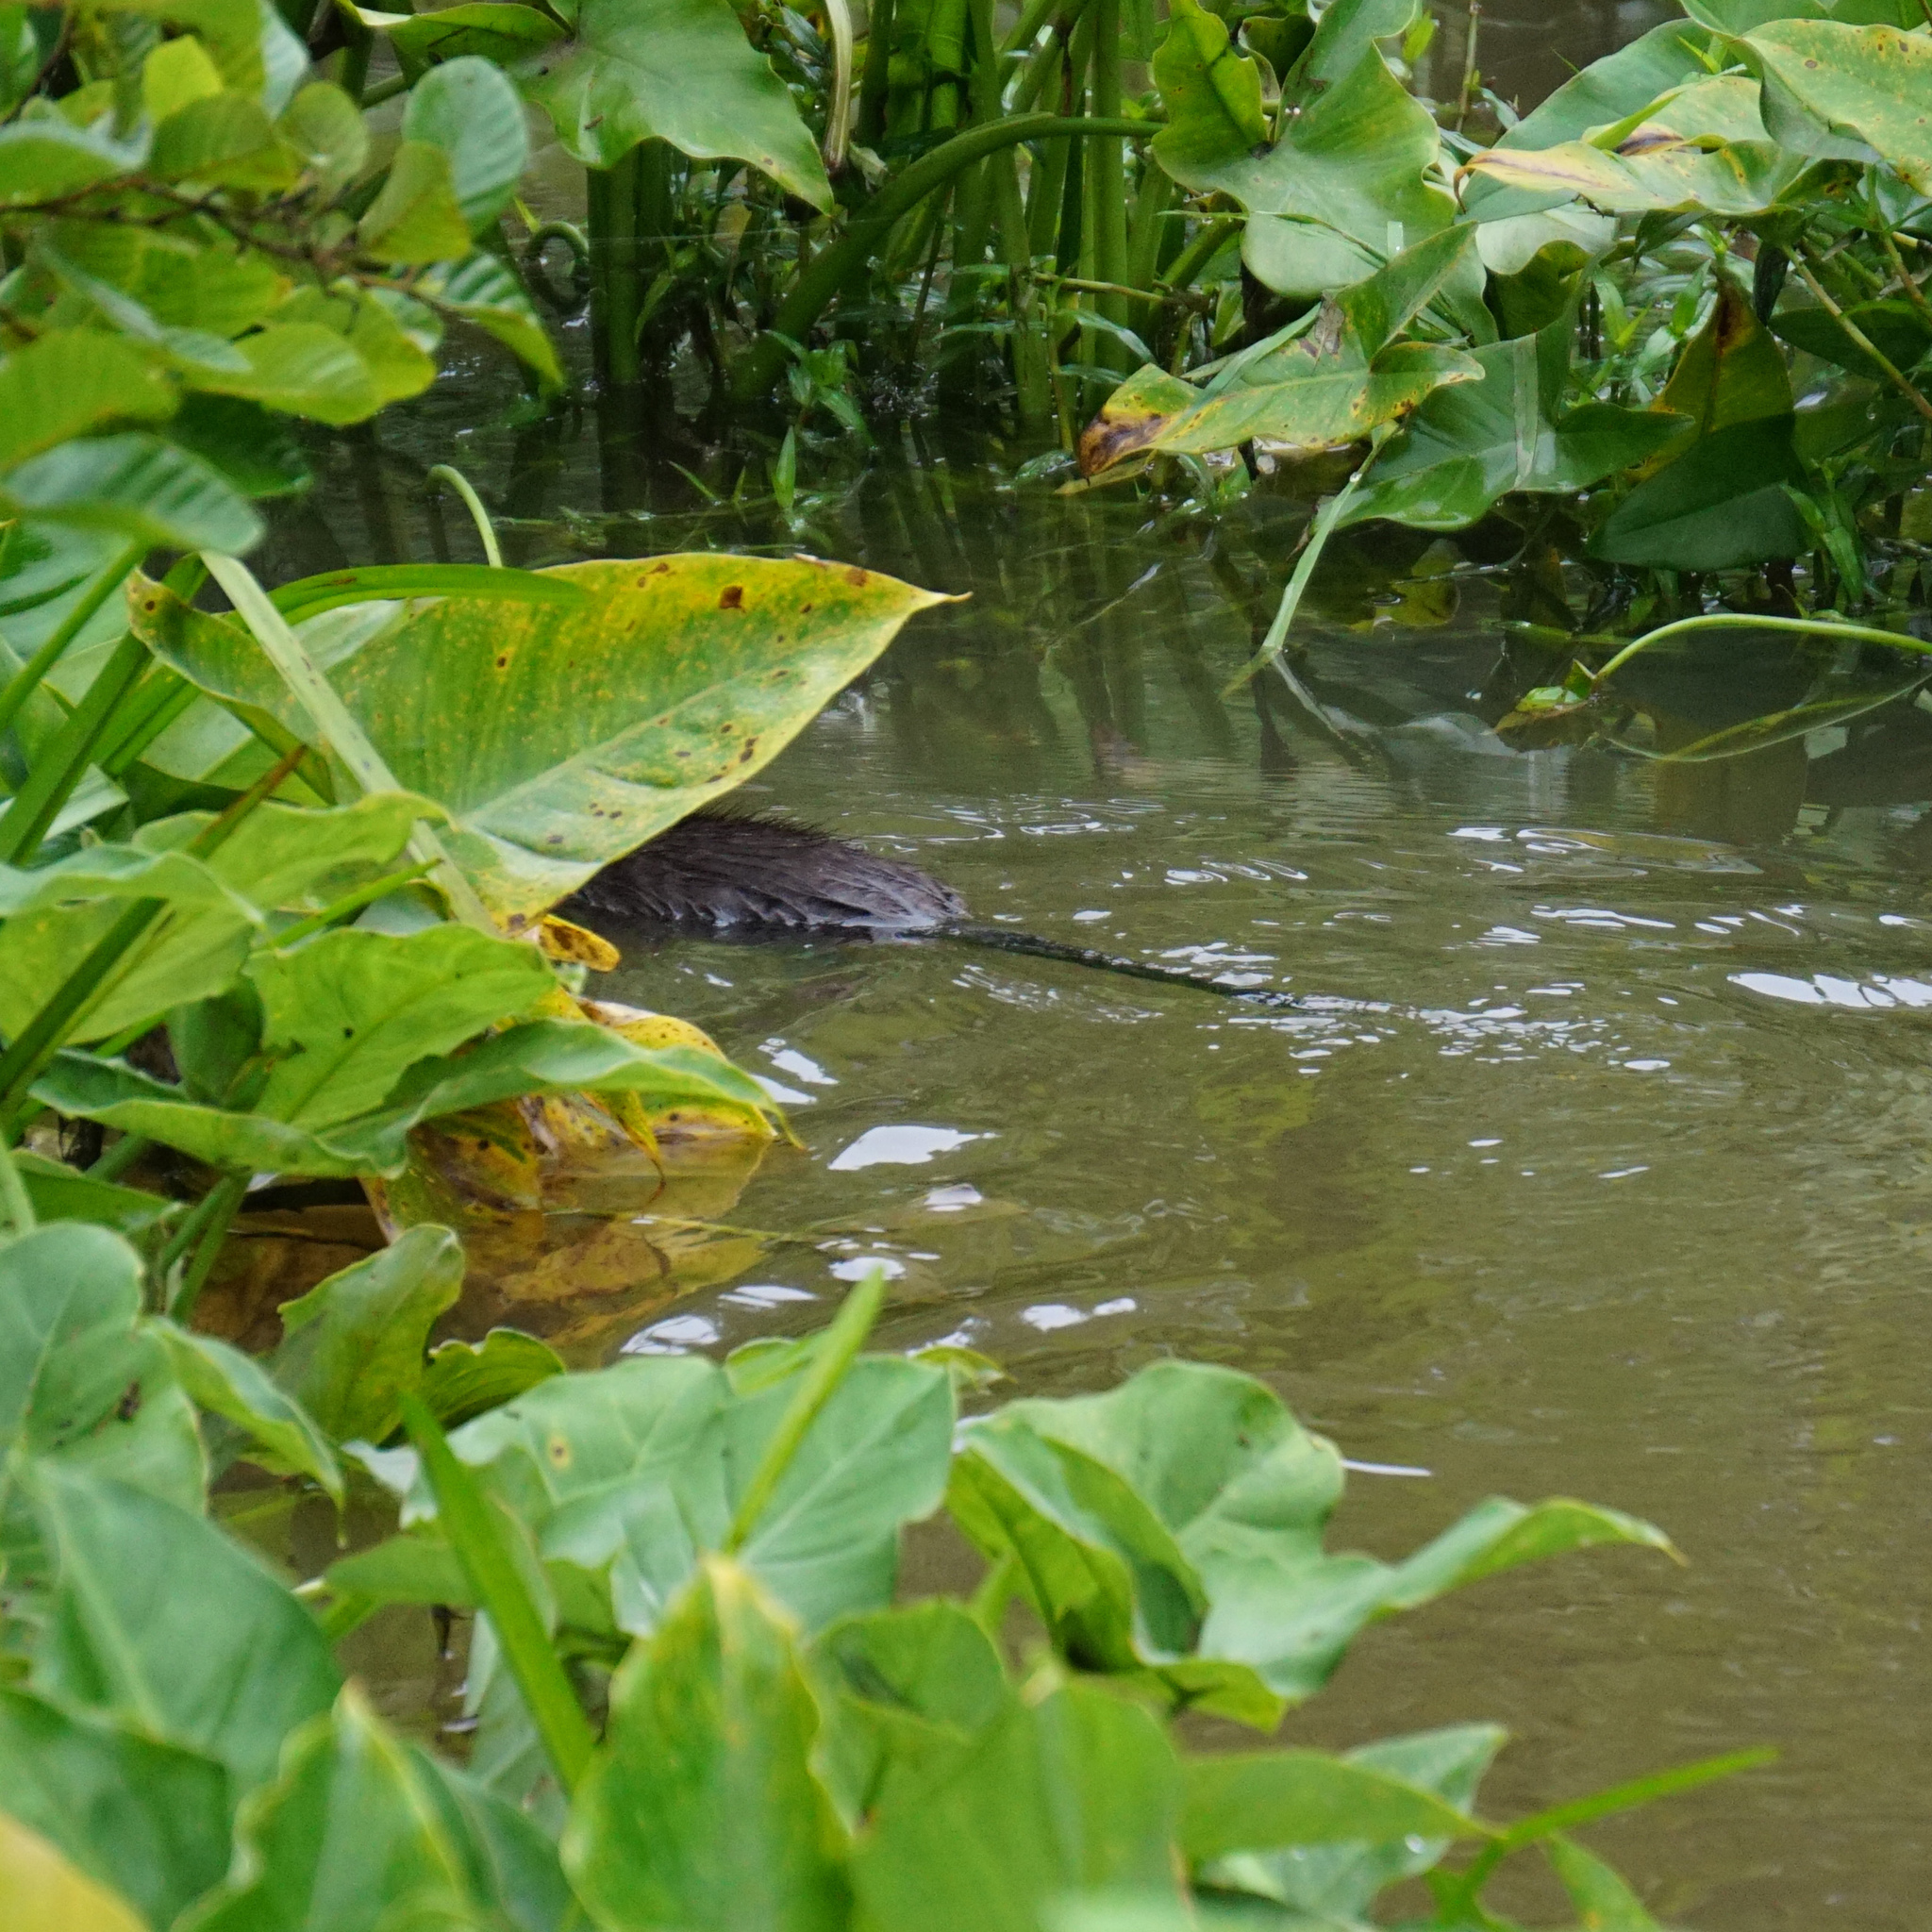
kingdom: Animalia
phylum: Chordata
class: Mammalia
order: Rodentia
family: Cricetidae
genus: Ondatra
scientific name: Ondatra zibethicus
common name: Muskrat
